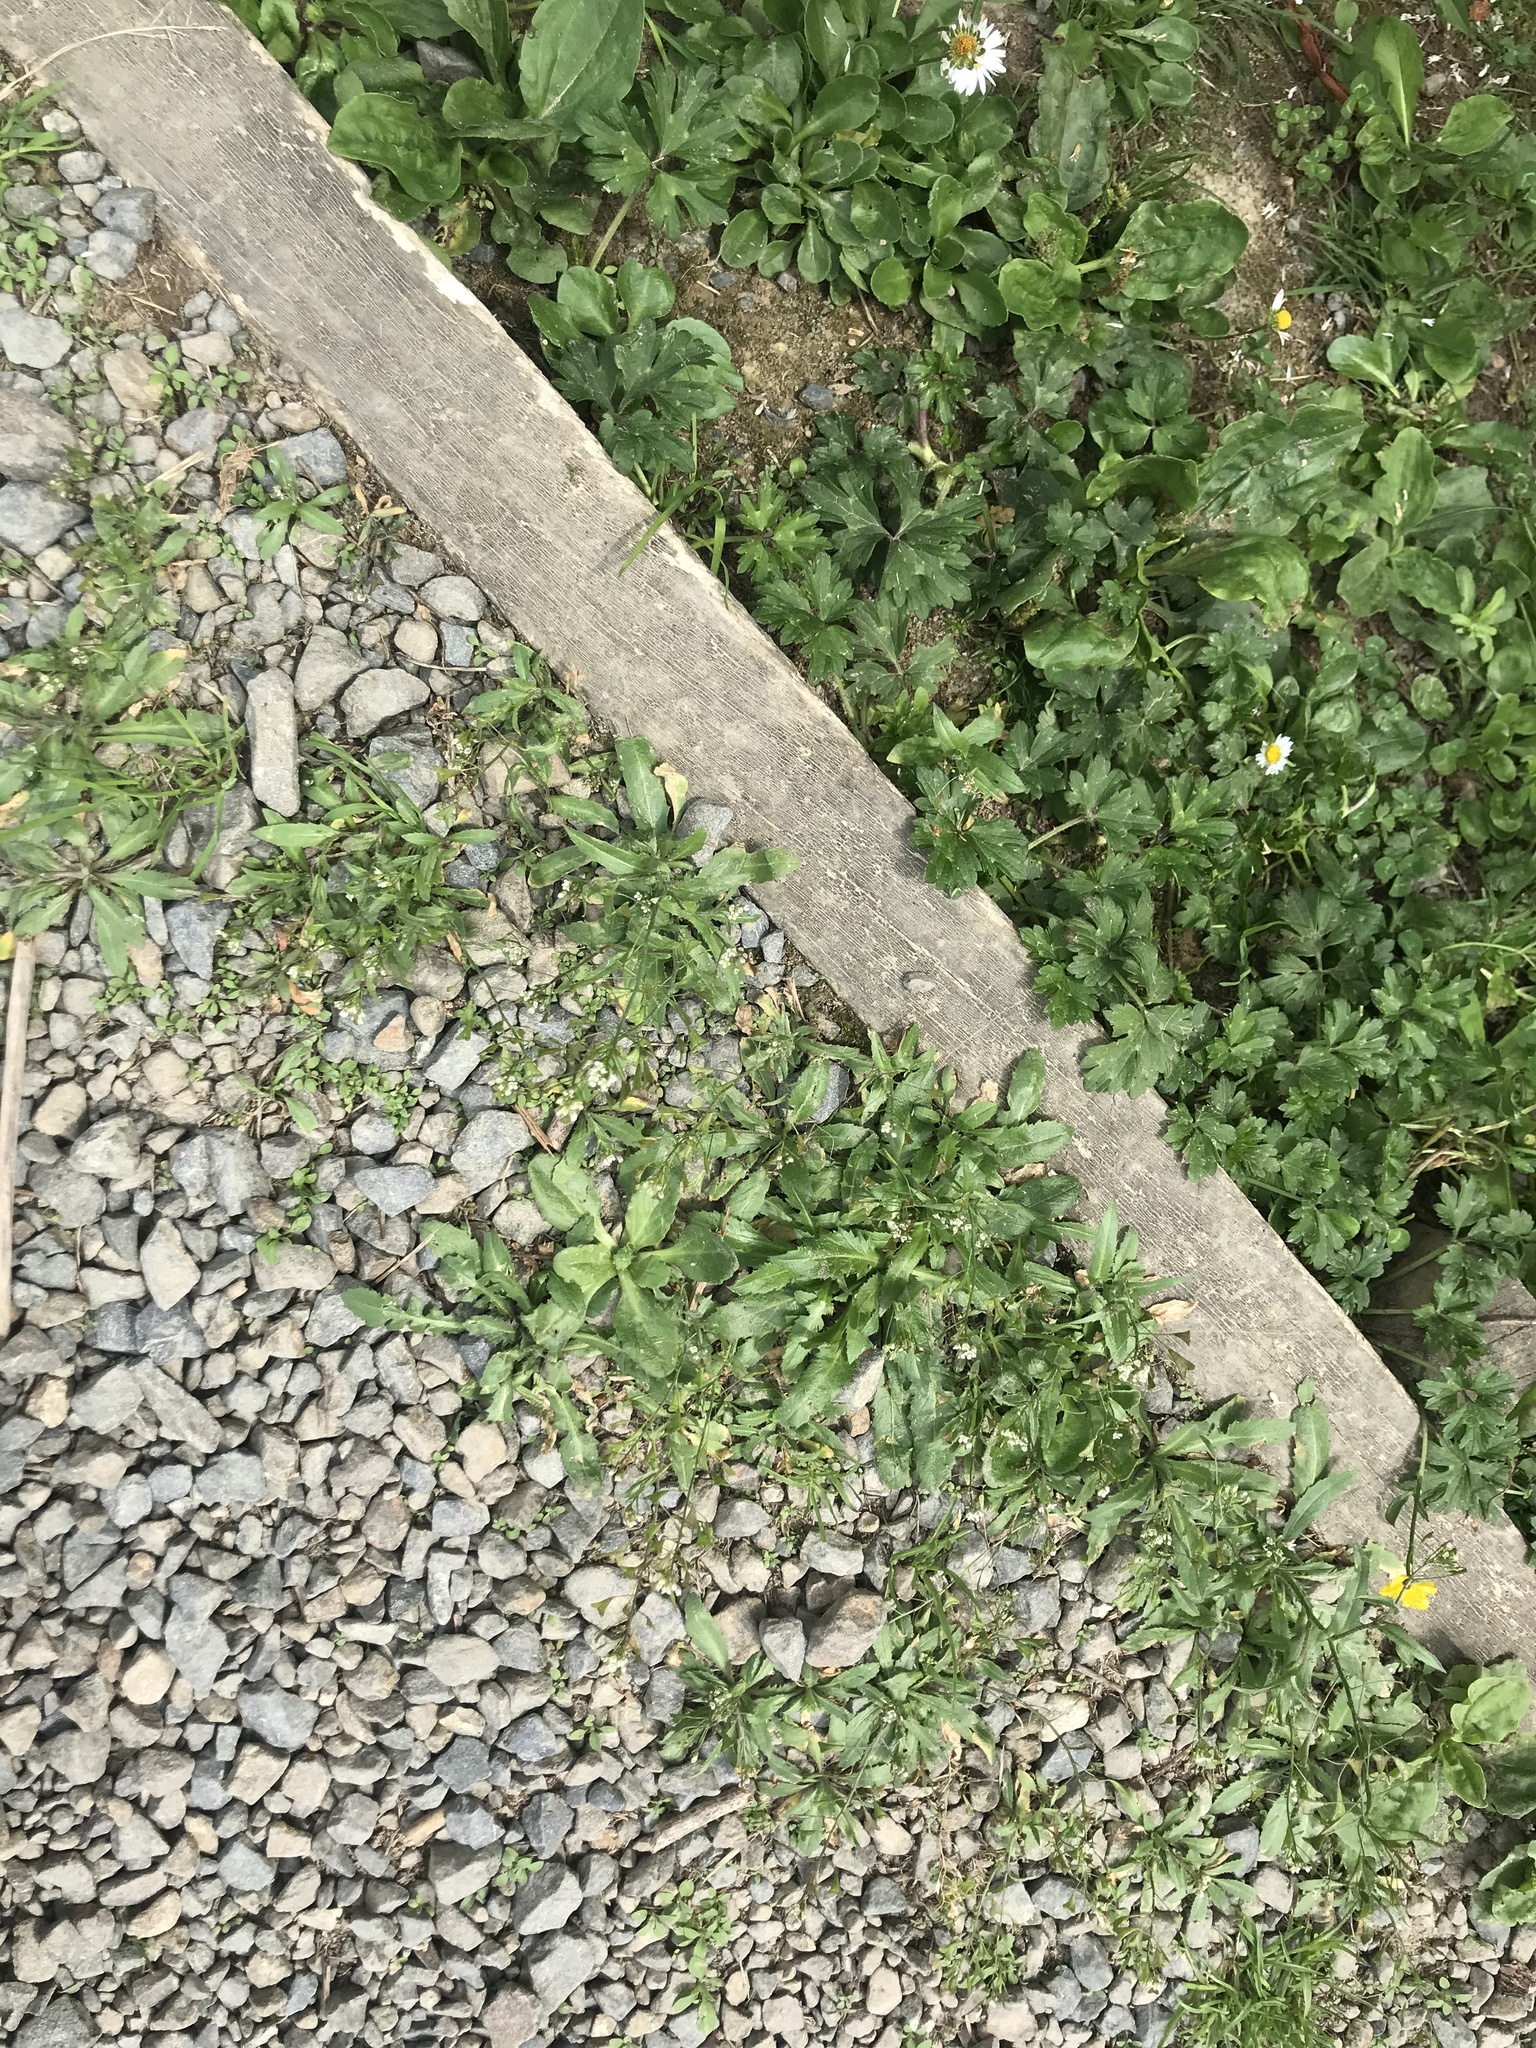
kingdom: Plantae
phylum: Tracheophyta
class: Magnoliopsida
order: Brassicales
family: Brassicaceae
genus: Capsella
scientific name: Capsella bursa-pastoris
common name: Shepherd's purse
